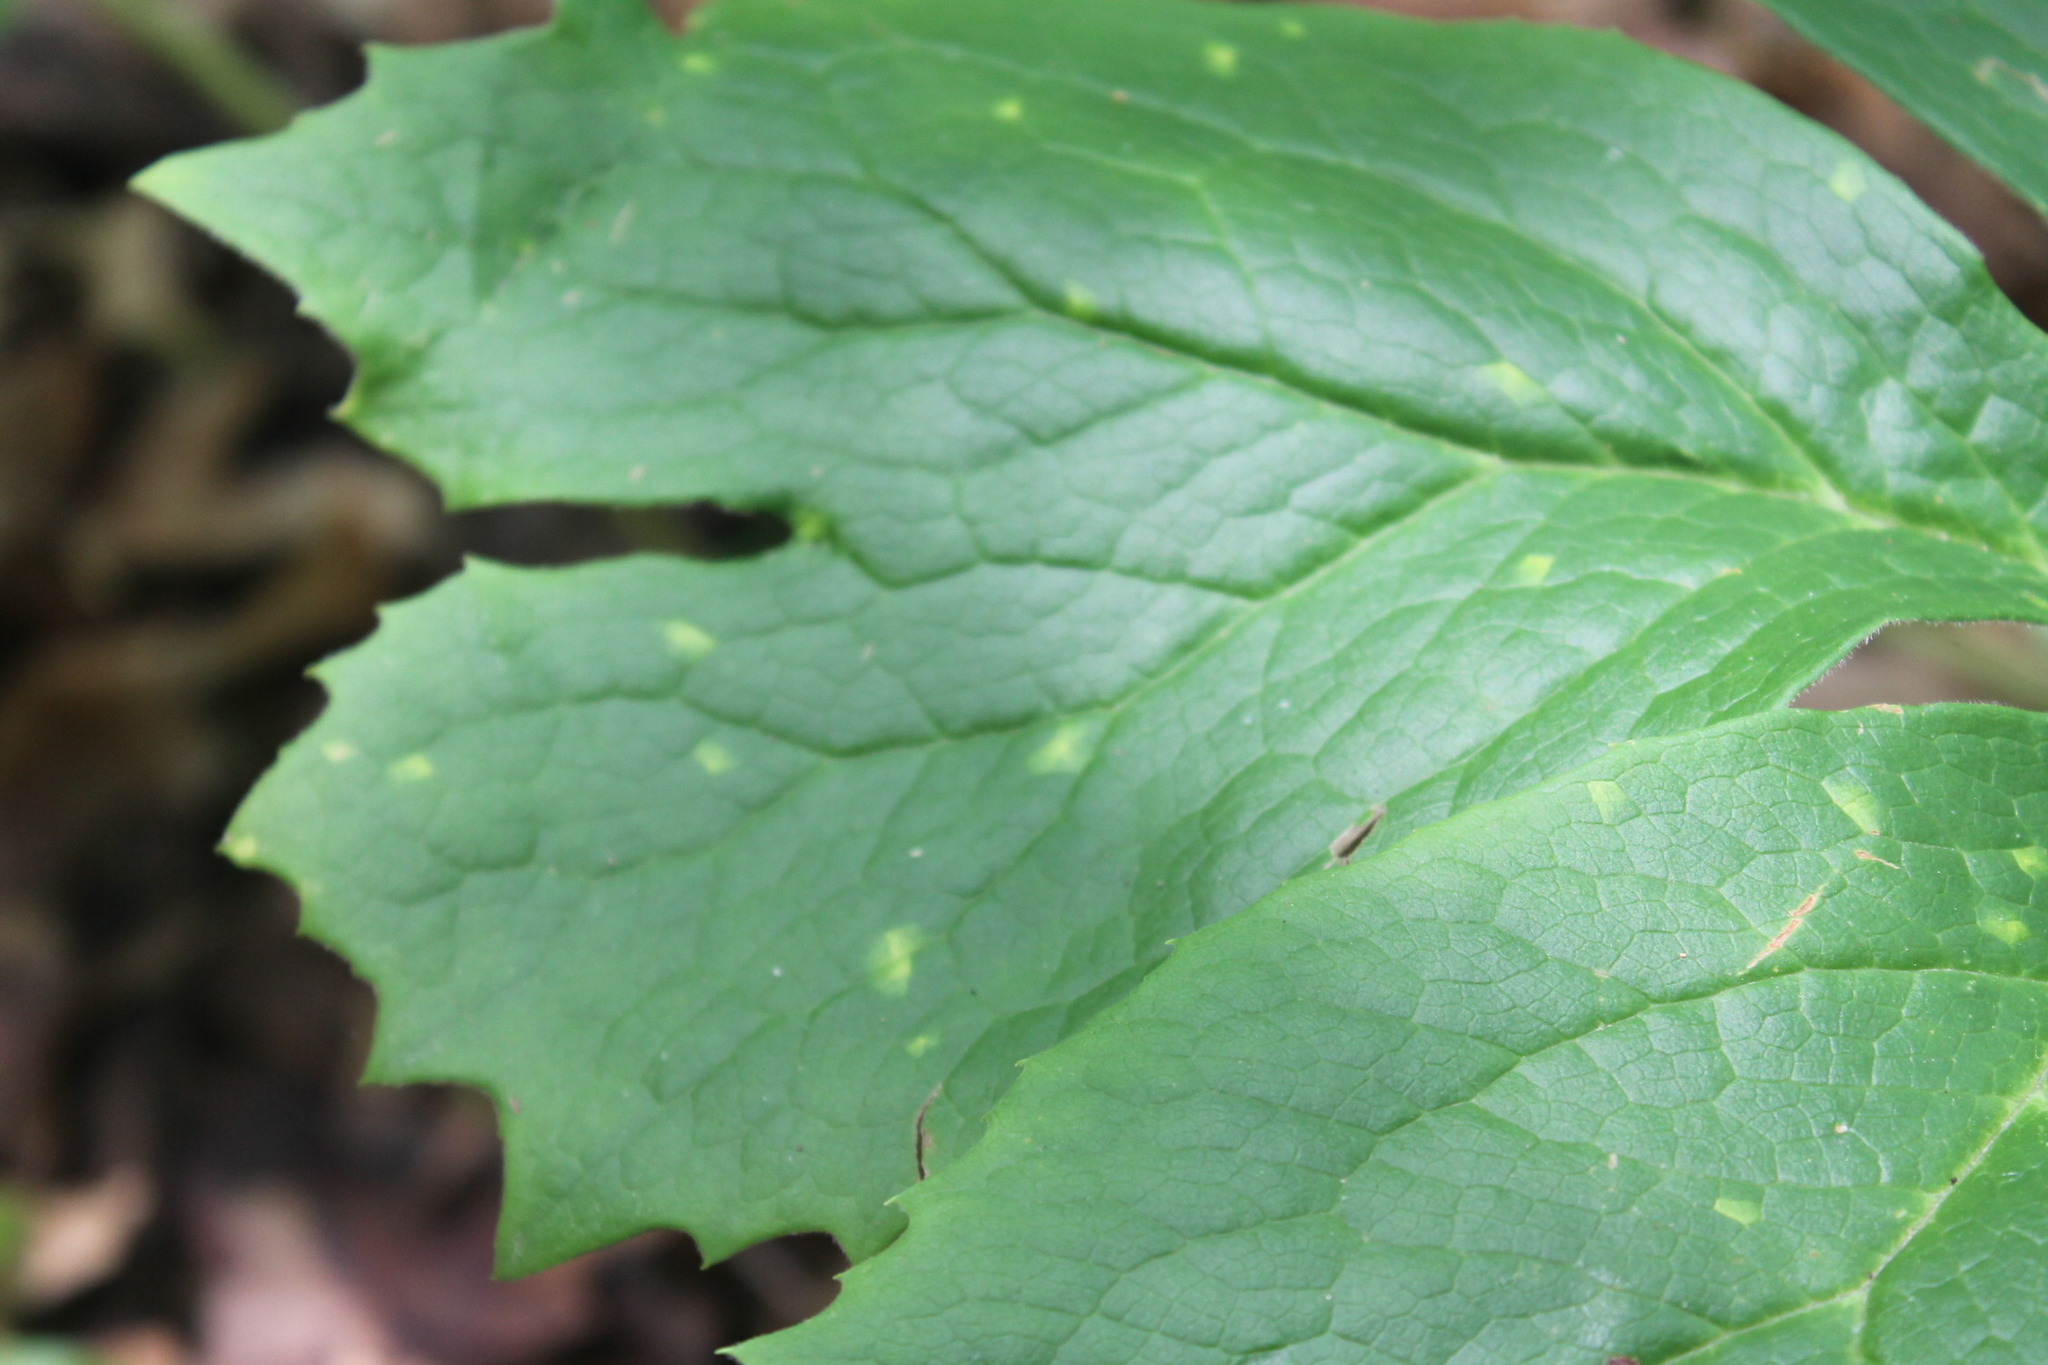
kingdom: Fungi
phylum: Basidiomycota
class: Pucciniomycetes
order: Pucciniales
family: Pucciniaceae
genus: Puccinia
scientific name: Puccinia podophylli
